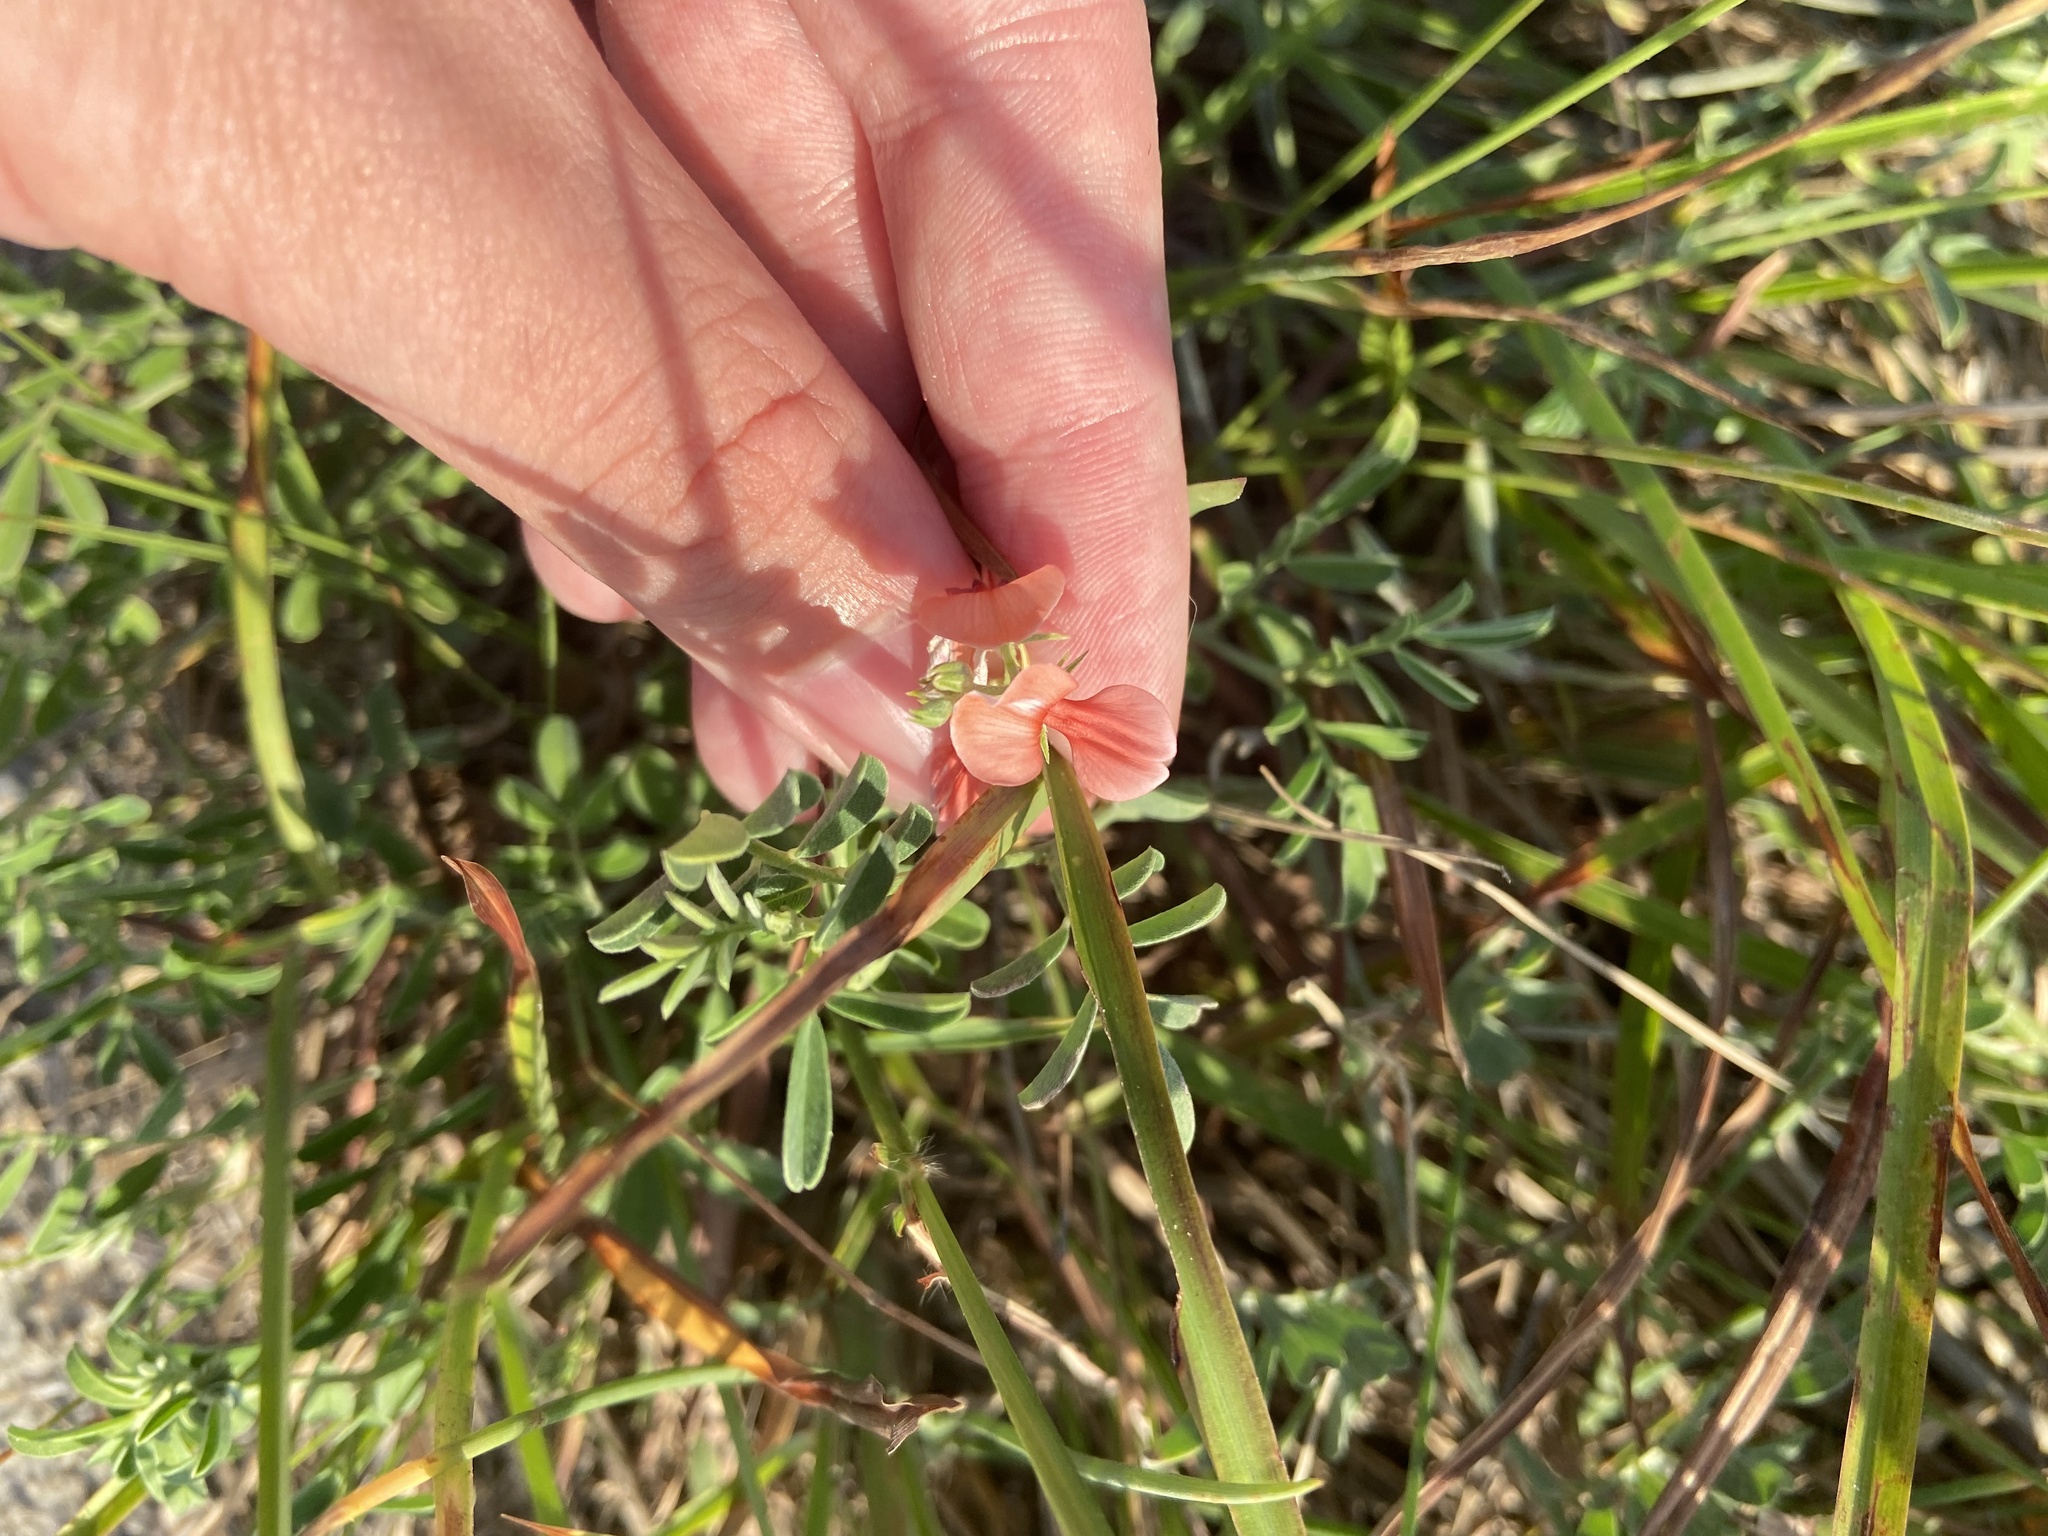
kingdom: Plantae
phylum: Tracheophyta
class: Magnoliopsida
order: Fabales
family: Fabaceae
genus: Indigofera
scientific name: Indigofera miniata
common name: Coast indigo
